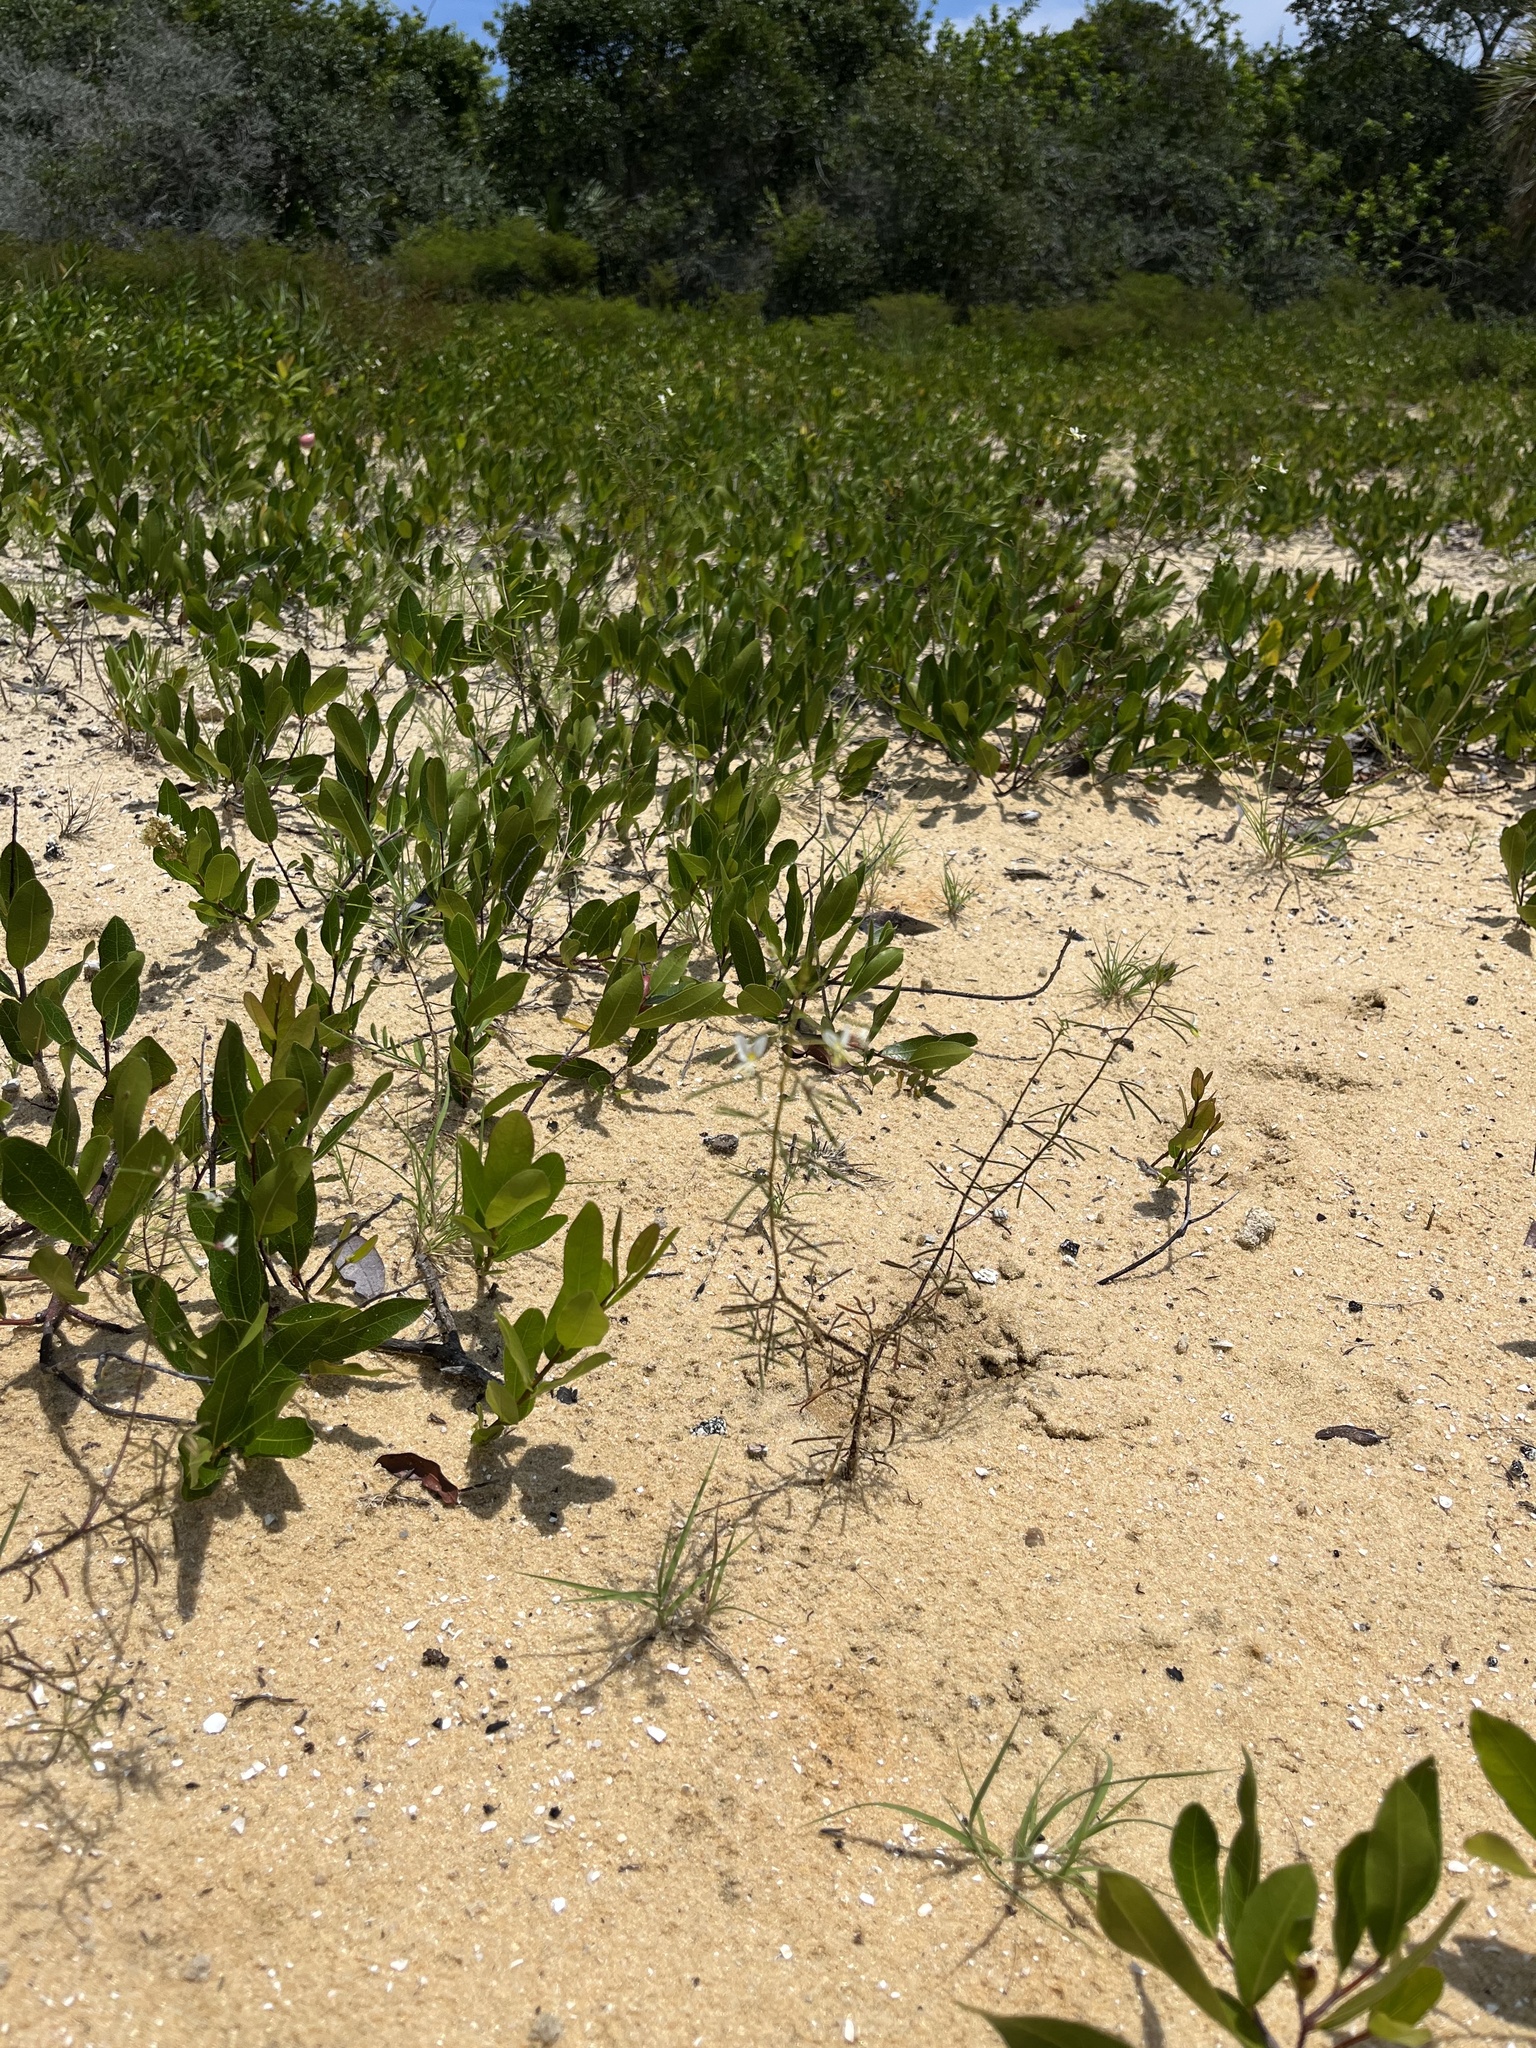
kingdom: Plantae
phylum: Tracheophyta
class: Magnoliopsida
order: Brassicales
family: Cleomaceae
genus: Polanisia
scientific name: Polanisia tenuifolia
